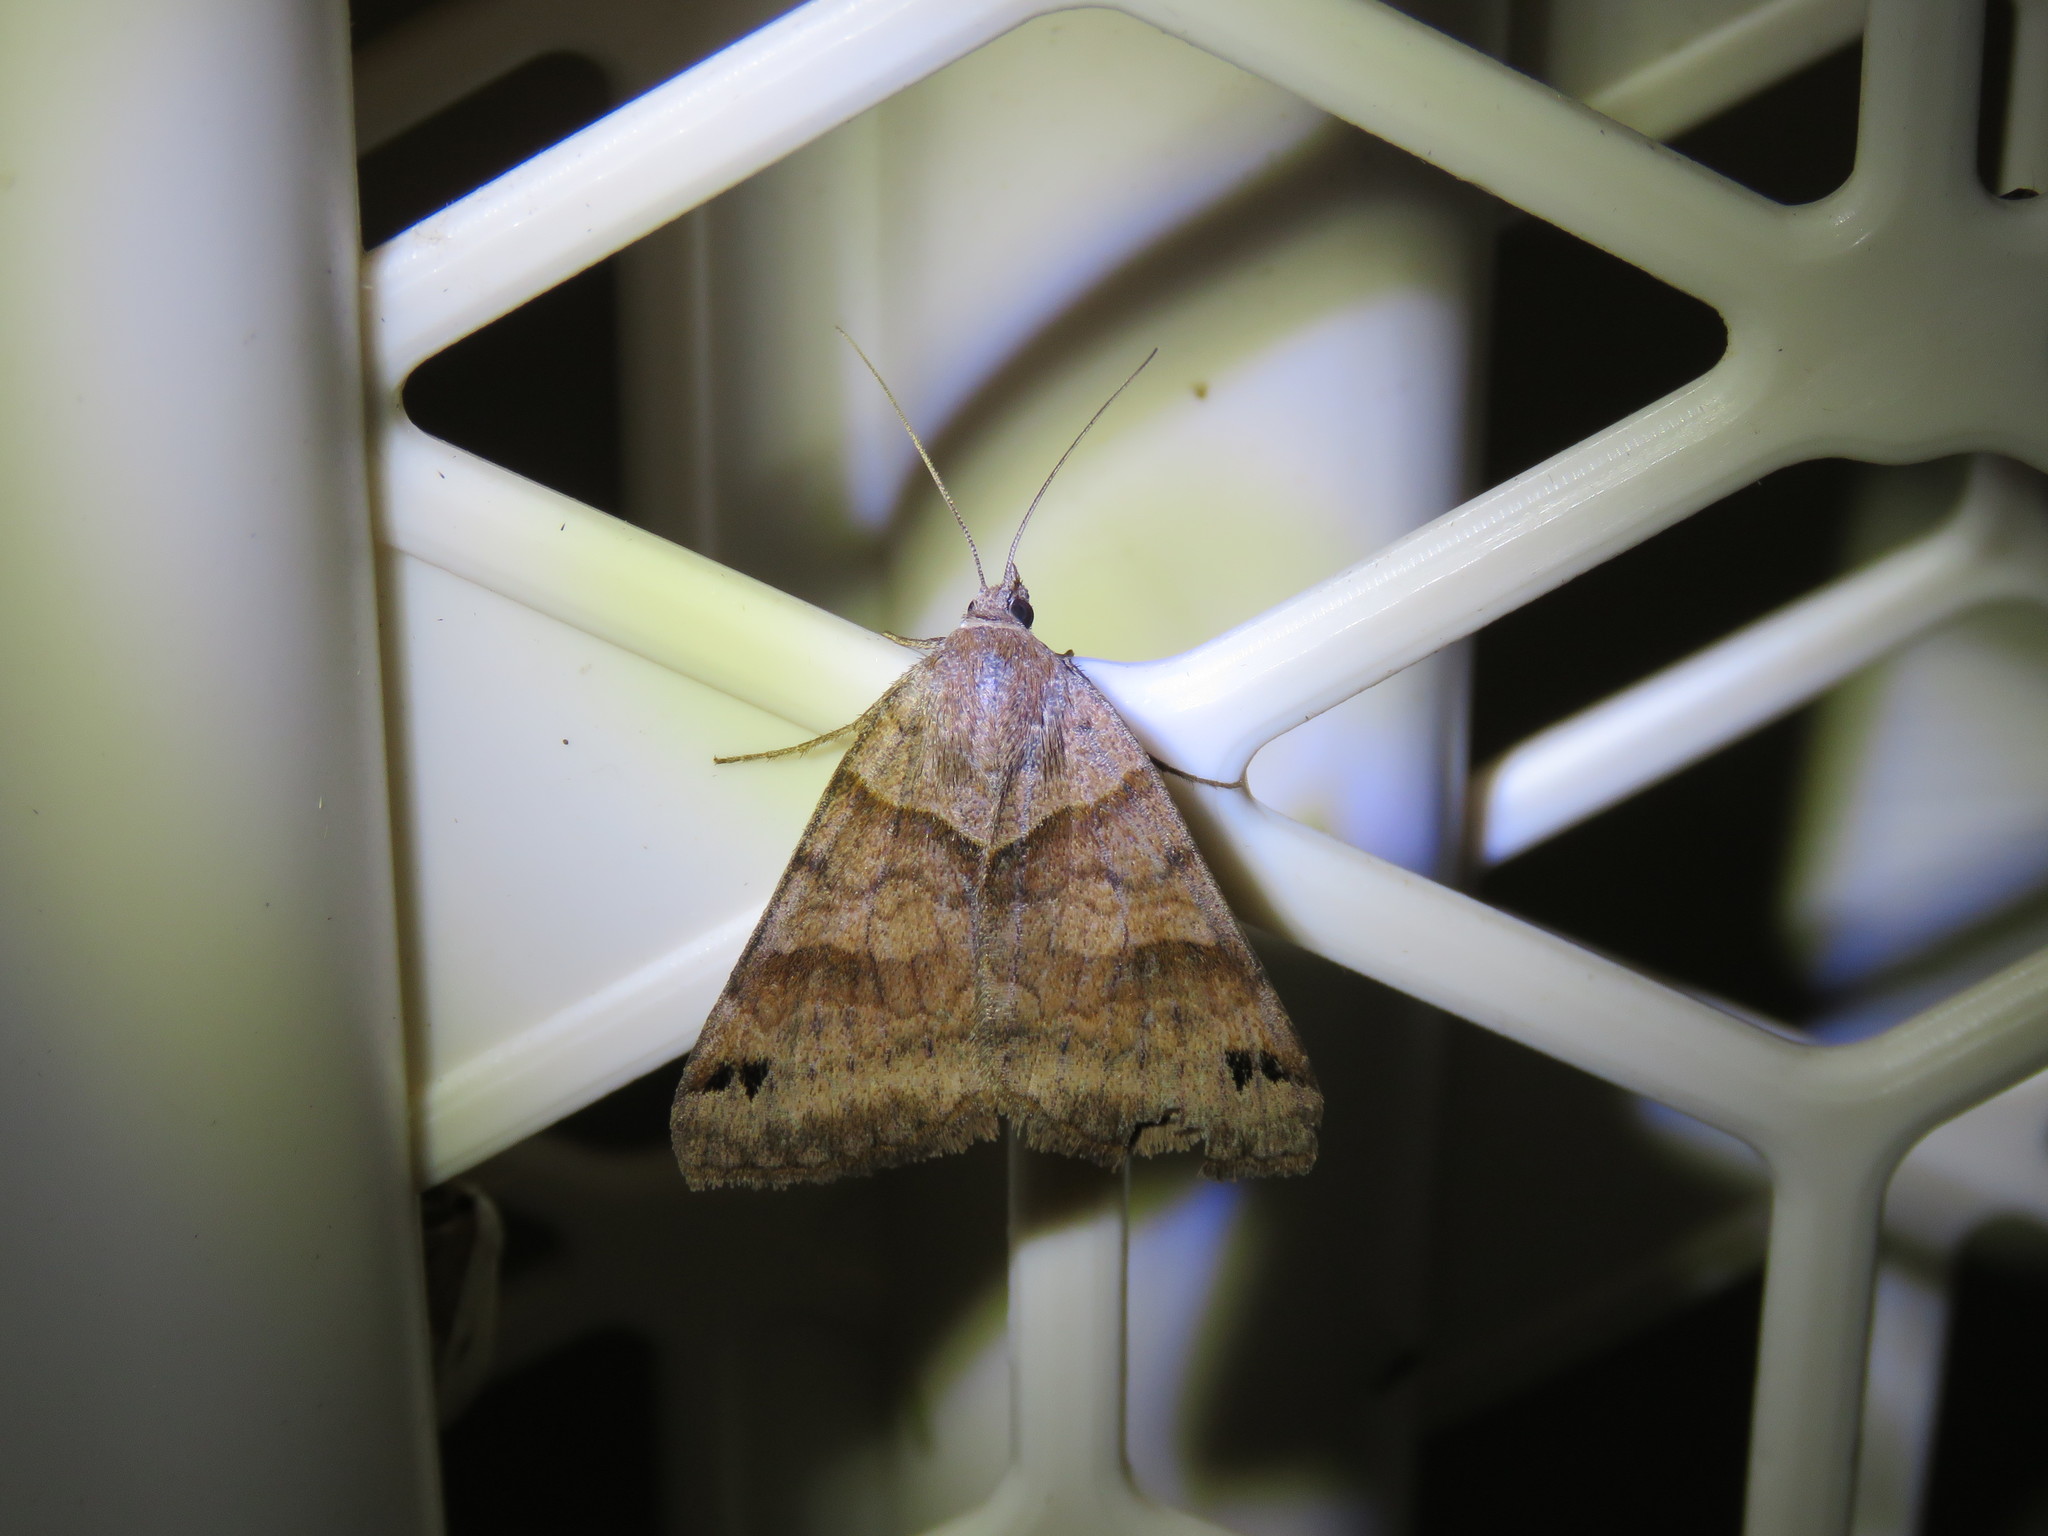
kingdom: Animalia
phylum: Arthropoda
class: Insecta
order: Lepidoptera
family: Erebidae
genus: Caenurgina
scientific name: Caenurgina crassiuscula
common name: Double-barred
